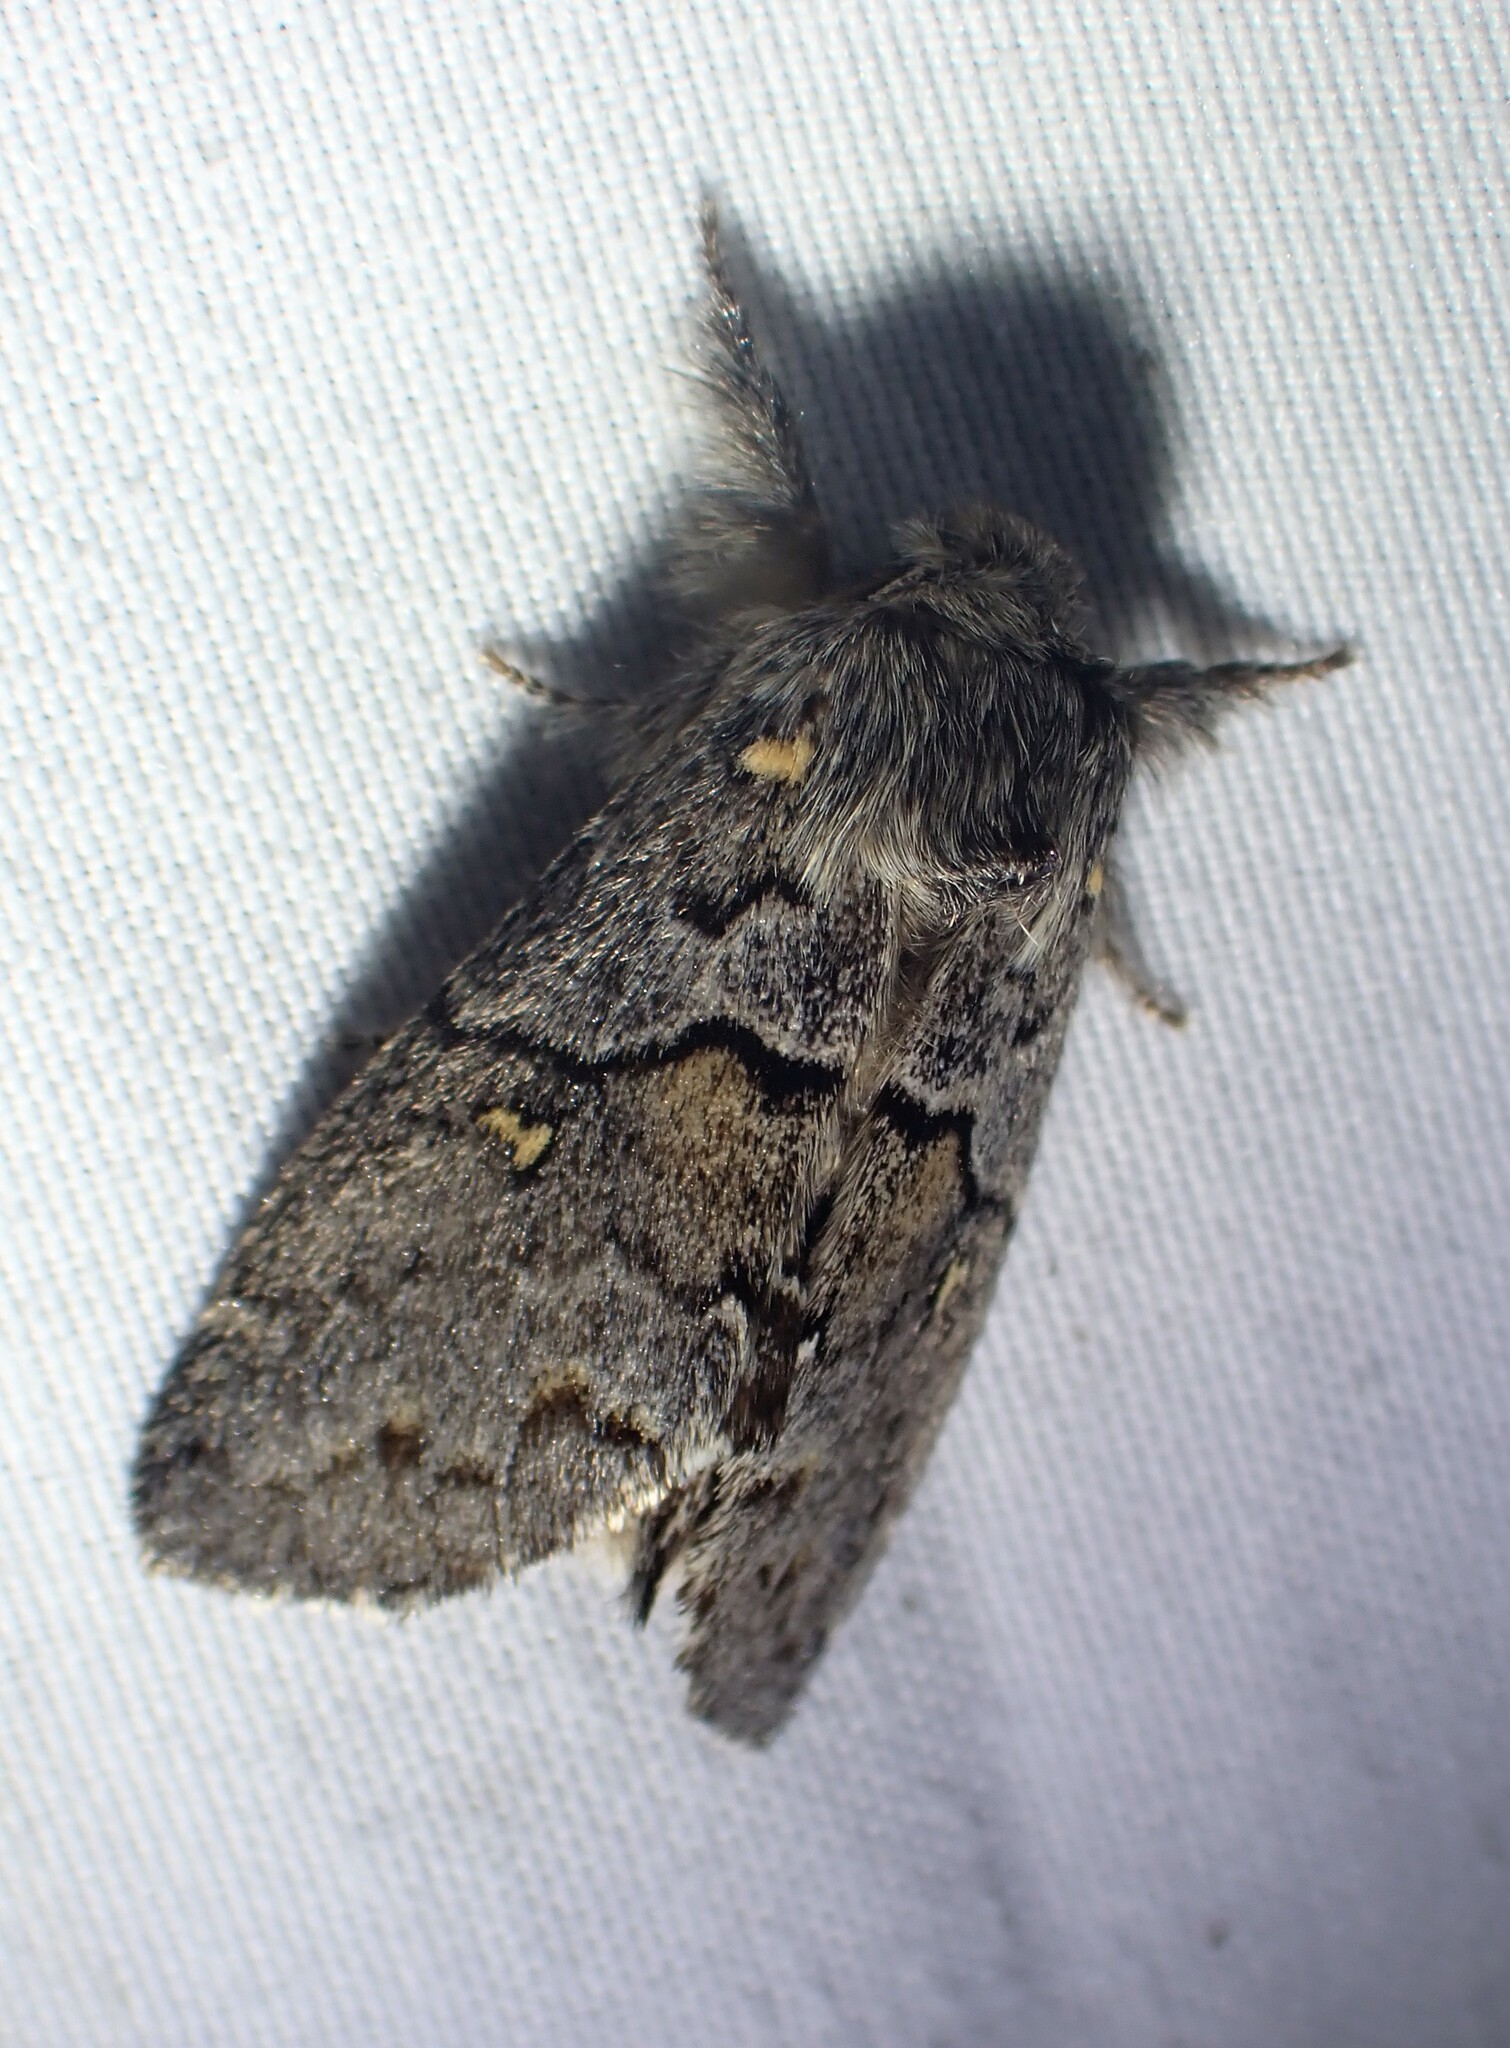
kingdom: Animalia
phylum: Arthropoda
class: Insecta
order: Lepidoptera
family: Notodontidae
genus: Gluphisia
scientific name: Gluphisia avimacula
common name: Four-spotted gluphisia moth
